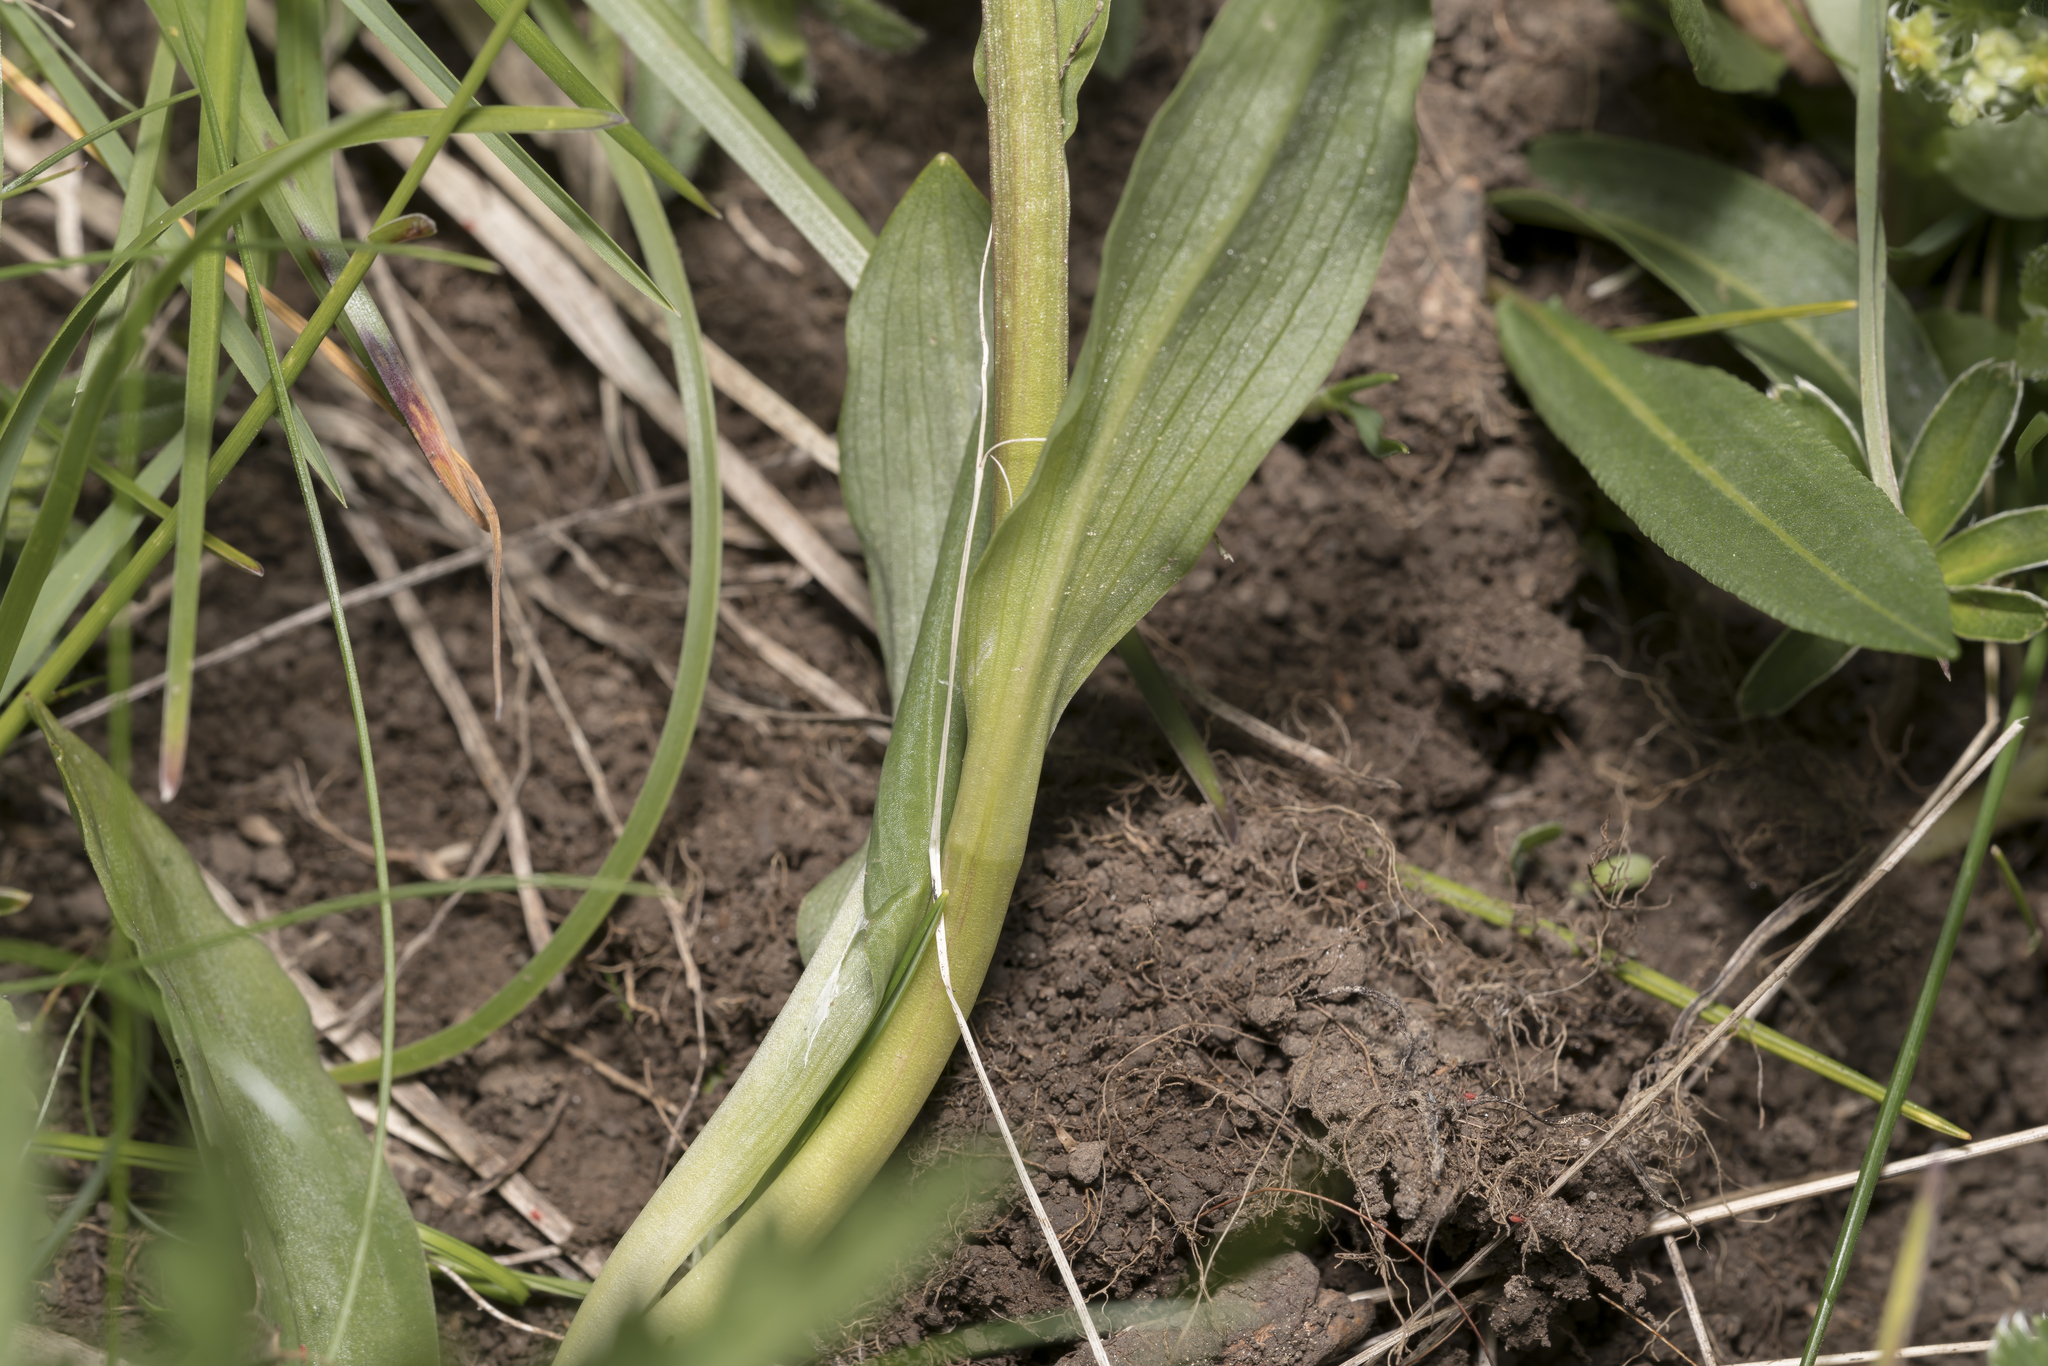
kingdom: Plantae
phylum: Tracheophyta
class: Liliopsida
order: Asparagales
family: Orchidaceae
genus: Dactylorhiza
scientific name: Dactylorhiza viridis
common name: Longbract frog orchid
